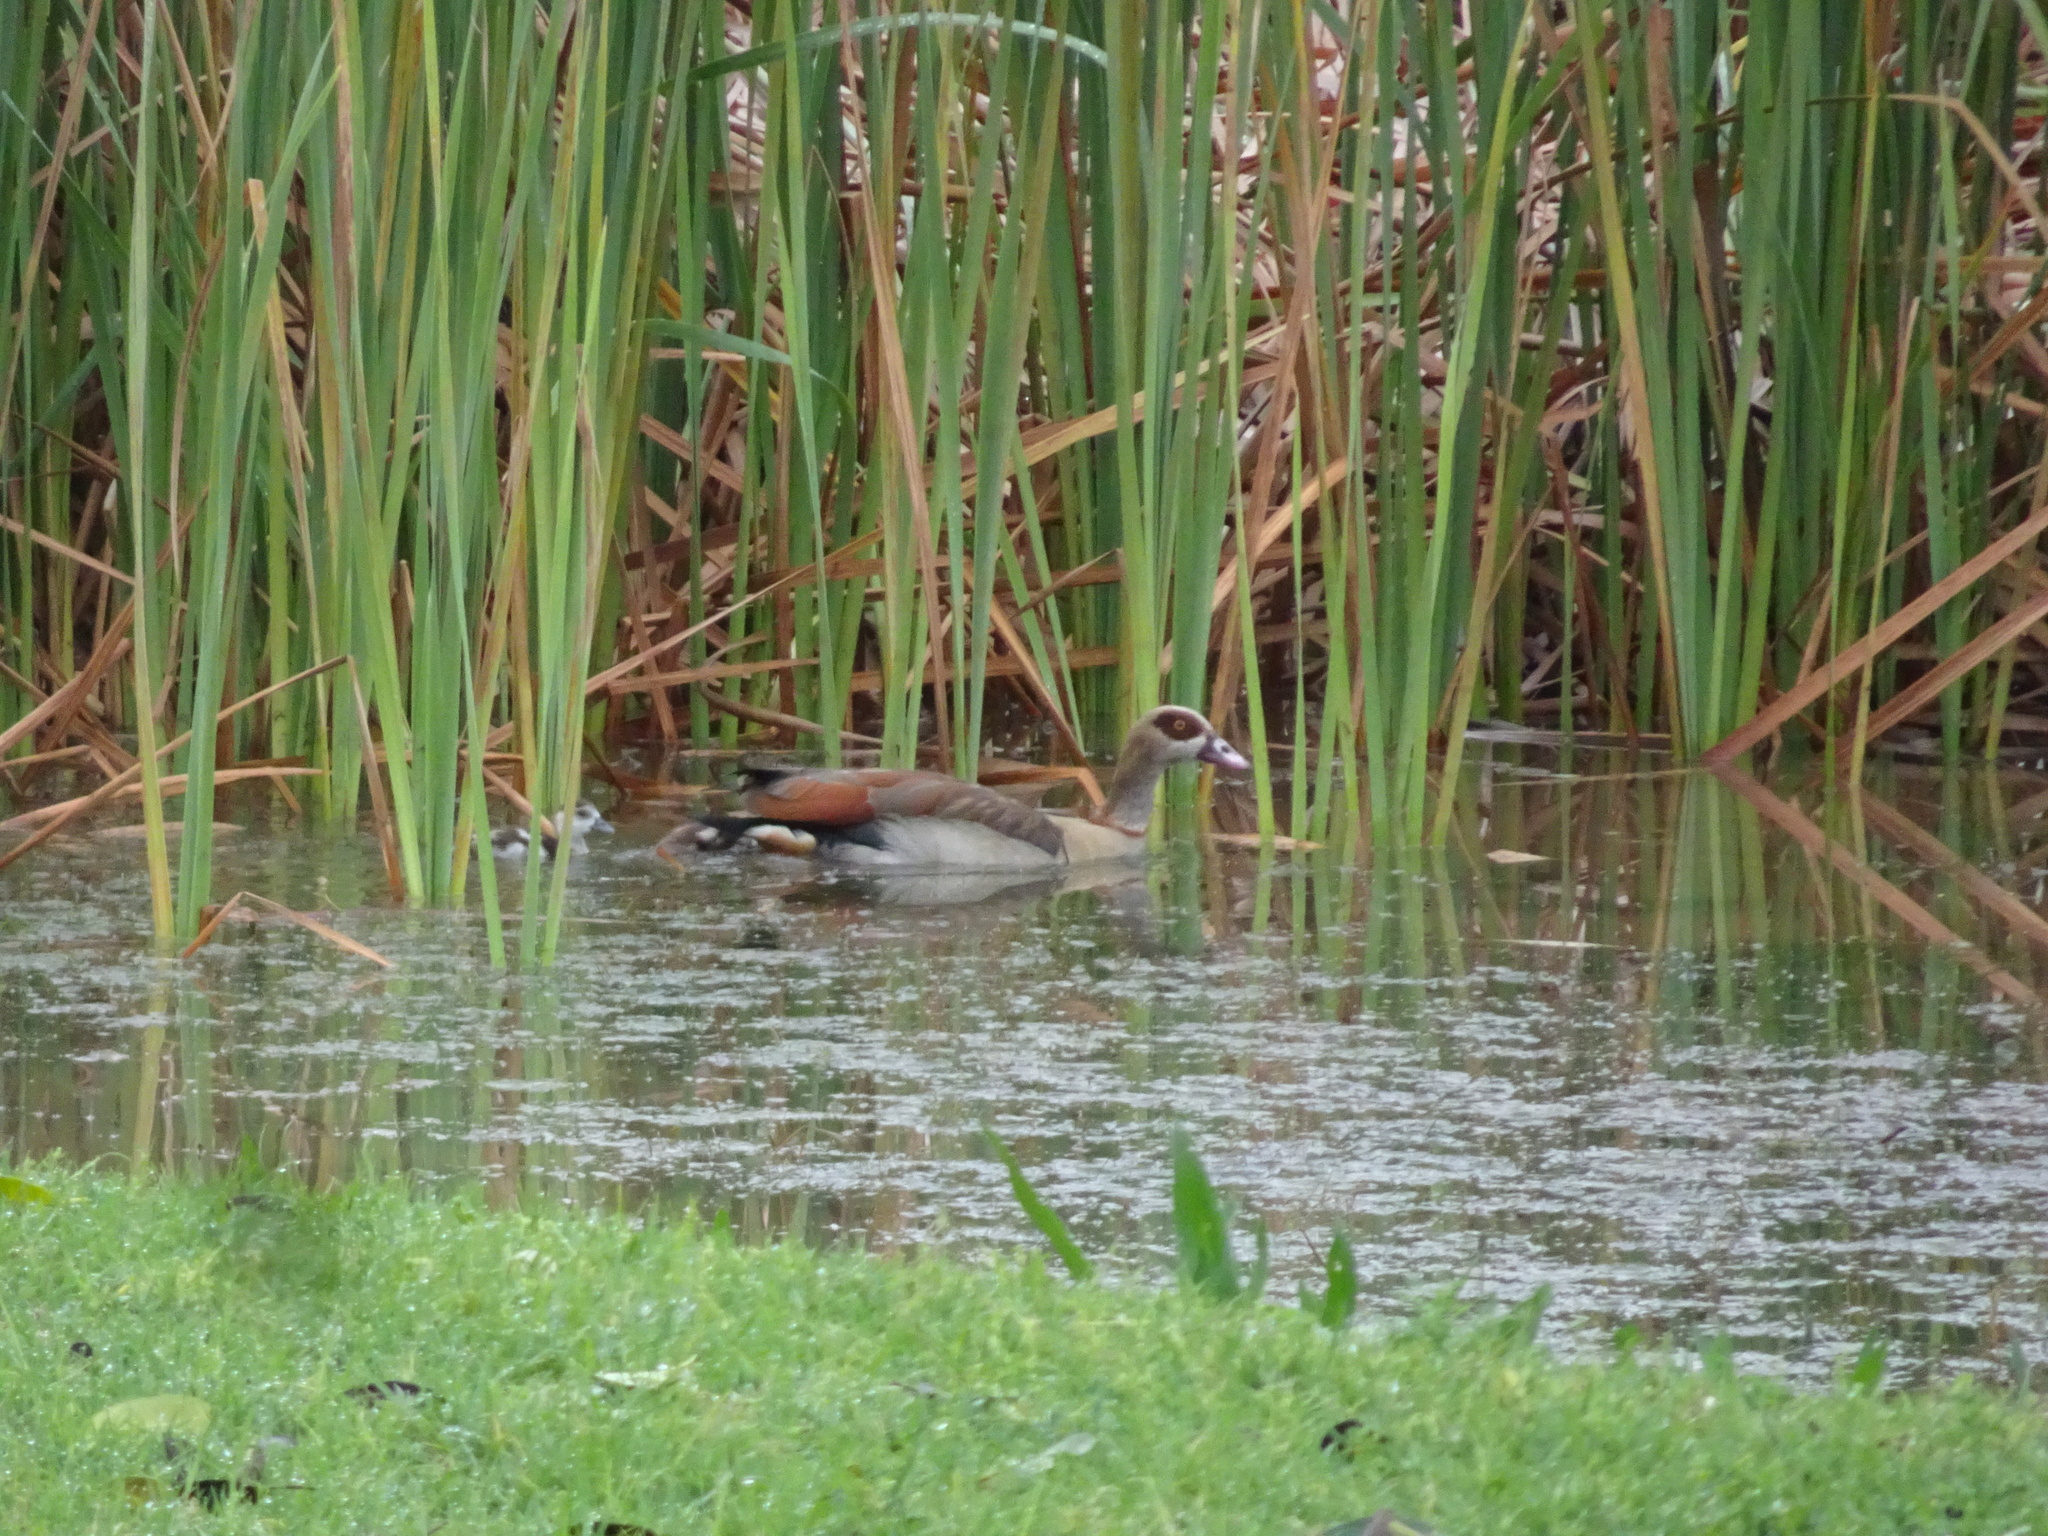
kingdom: Animalia
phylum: Chordata
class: Aves
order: Anseriformes
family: Anatidae
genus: Alopochen
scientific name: Alopochen aegyptiaca
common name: Egyptian goose
